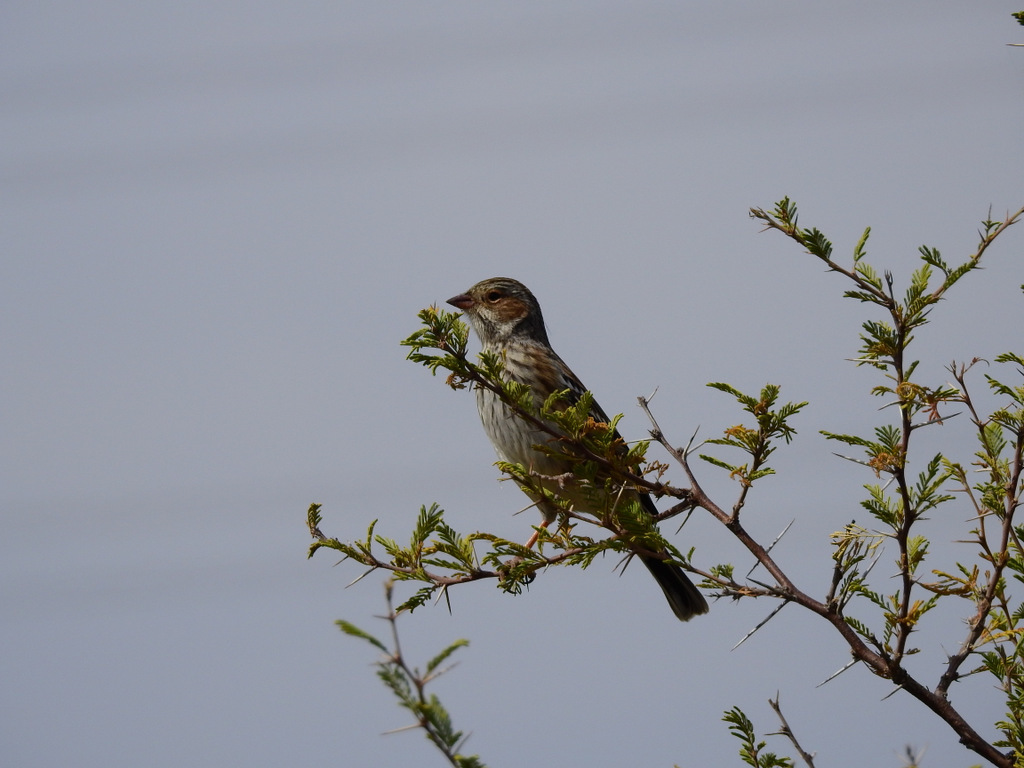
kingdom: Animalia
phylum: Chordata
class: Aves
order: Passeriformes
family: Thraupidae
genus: Rhopospina
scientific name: Rhopospina fruticeti
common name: Mourning sierra finch
